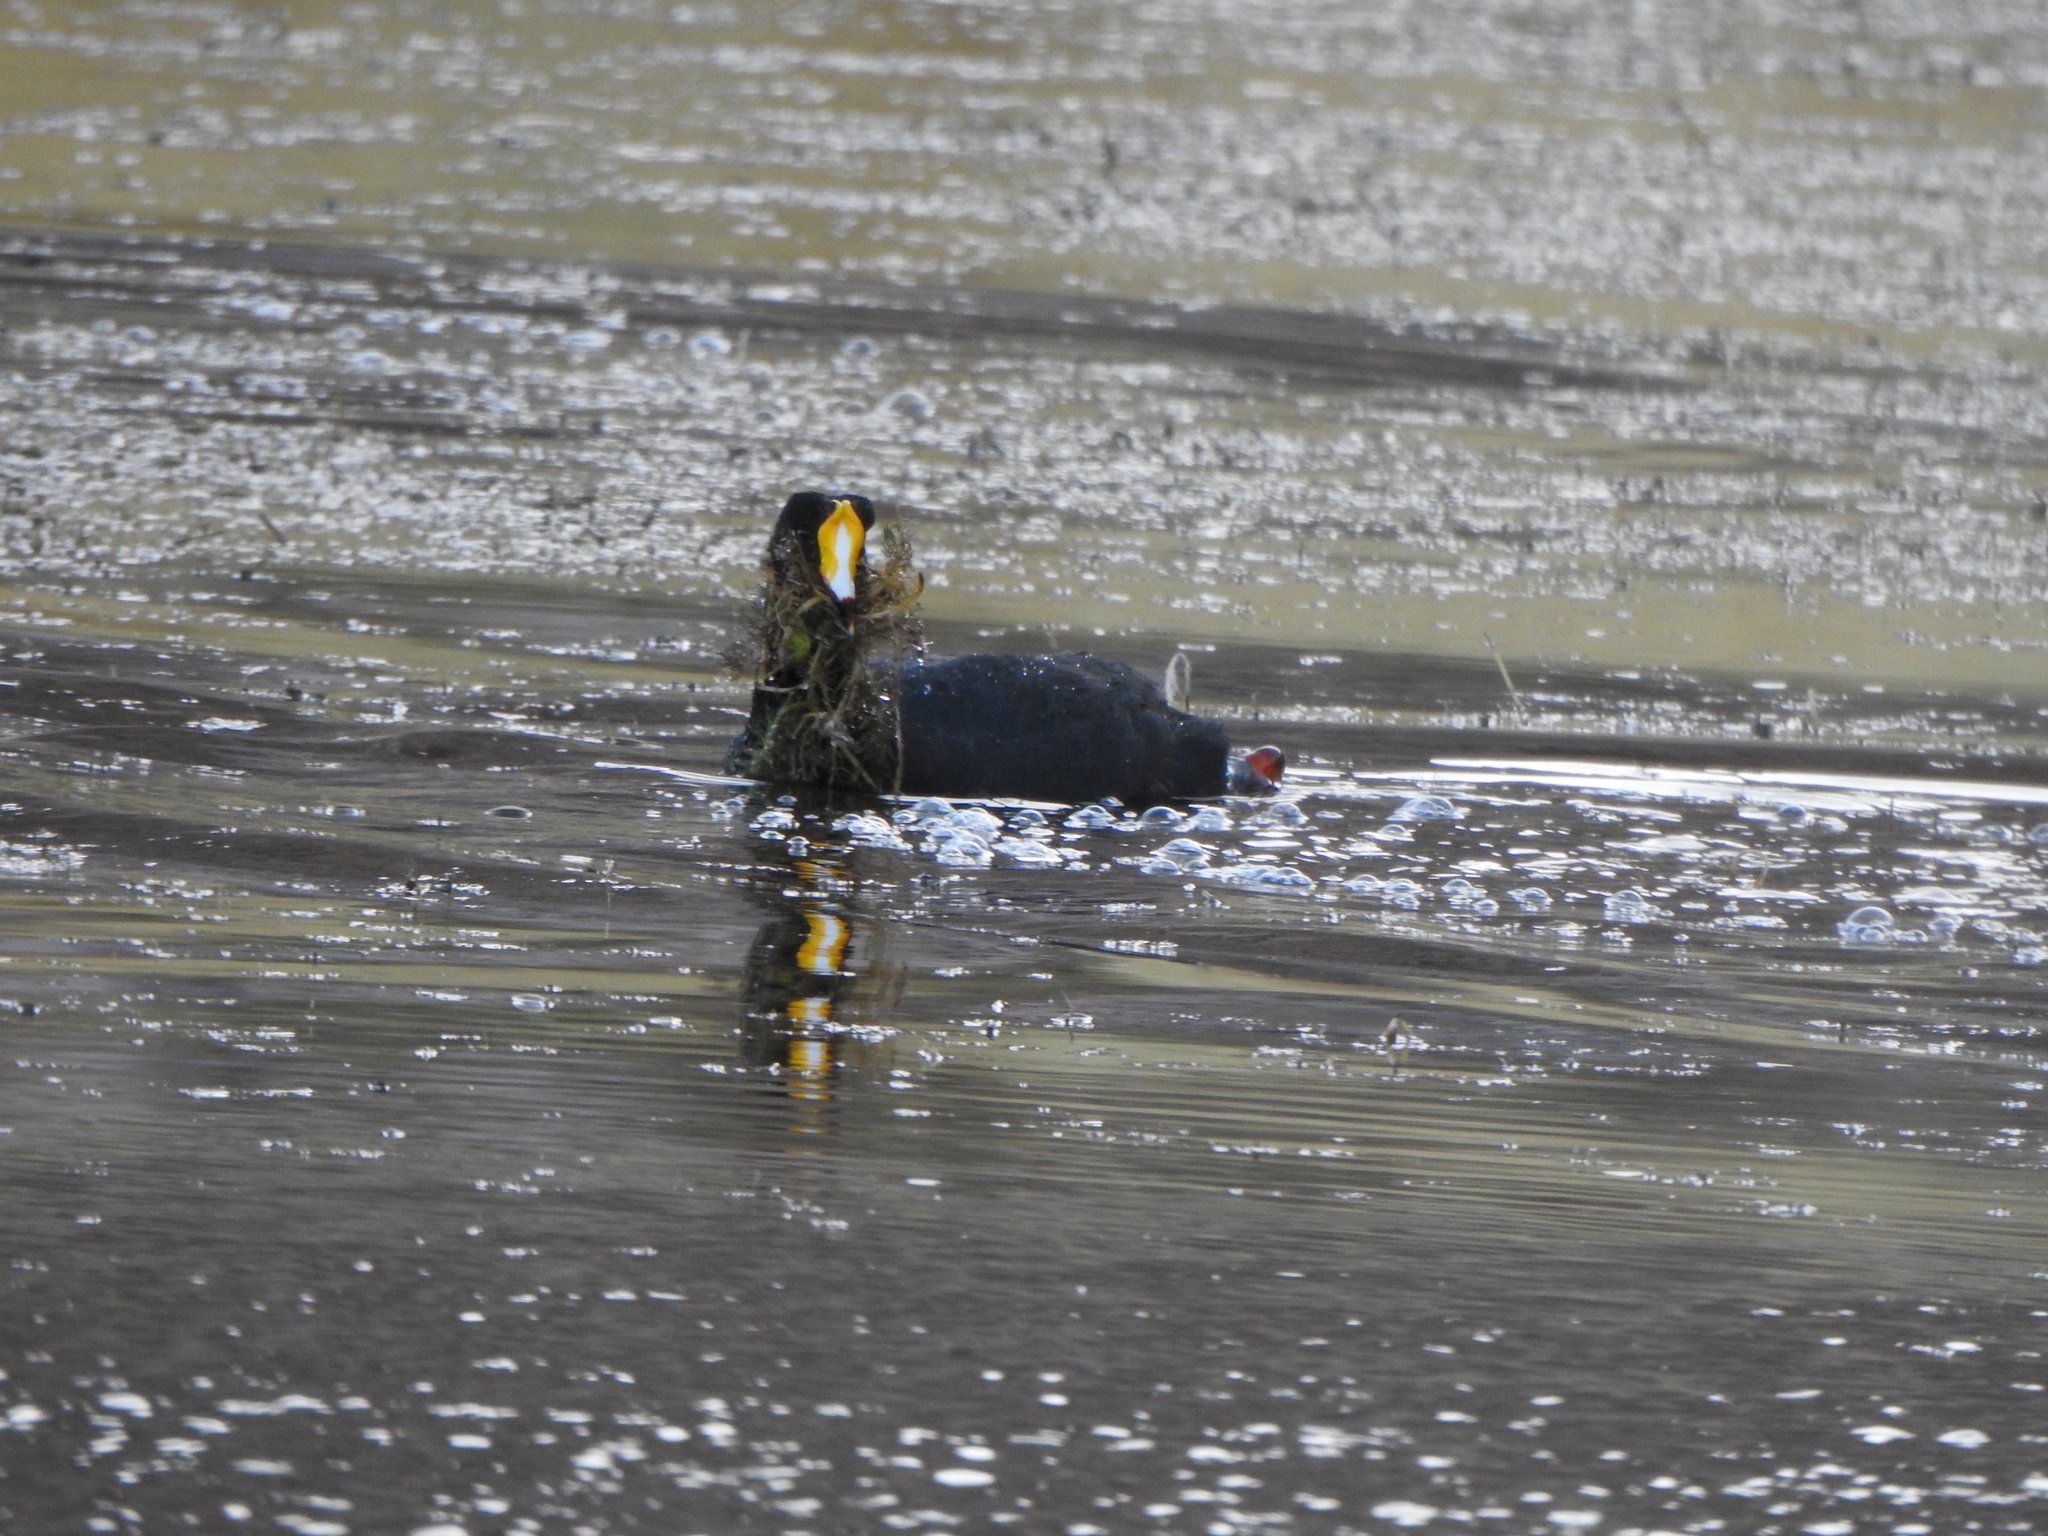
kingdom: Animalia
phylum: Chordata
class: Aves
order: Gruiformes
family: Rallidae
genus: Fulica
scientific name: Fulica gigantea
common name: Giant coot
